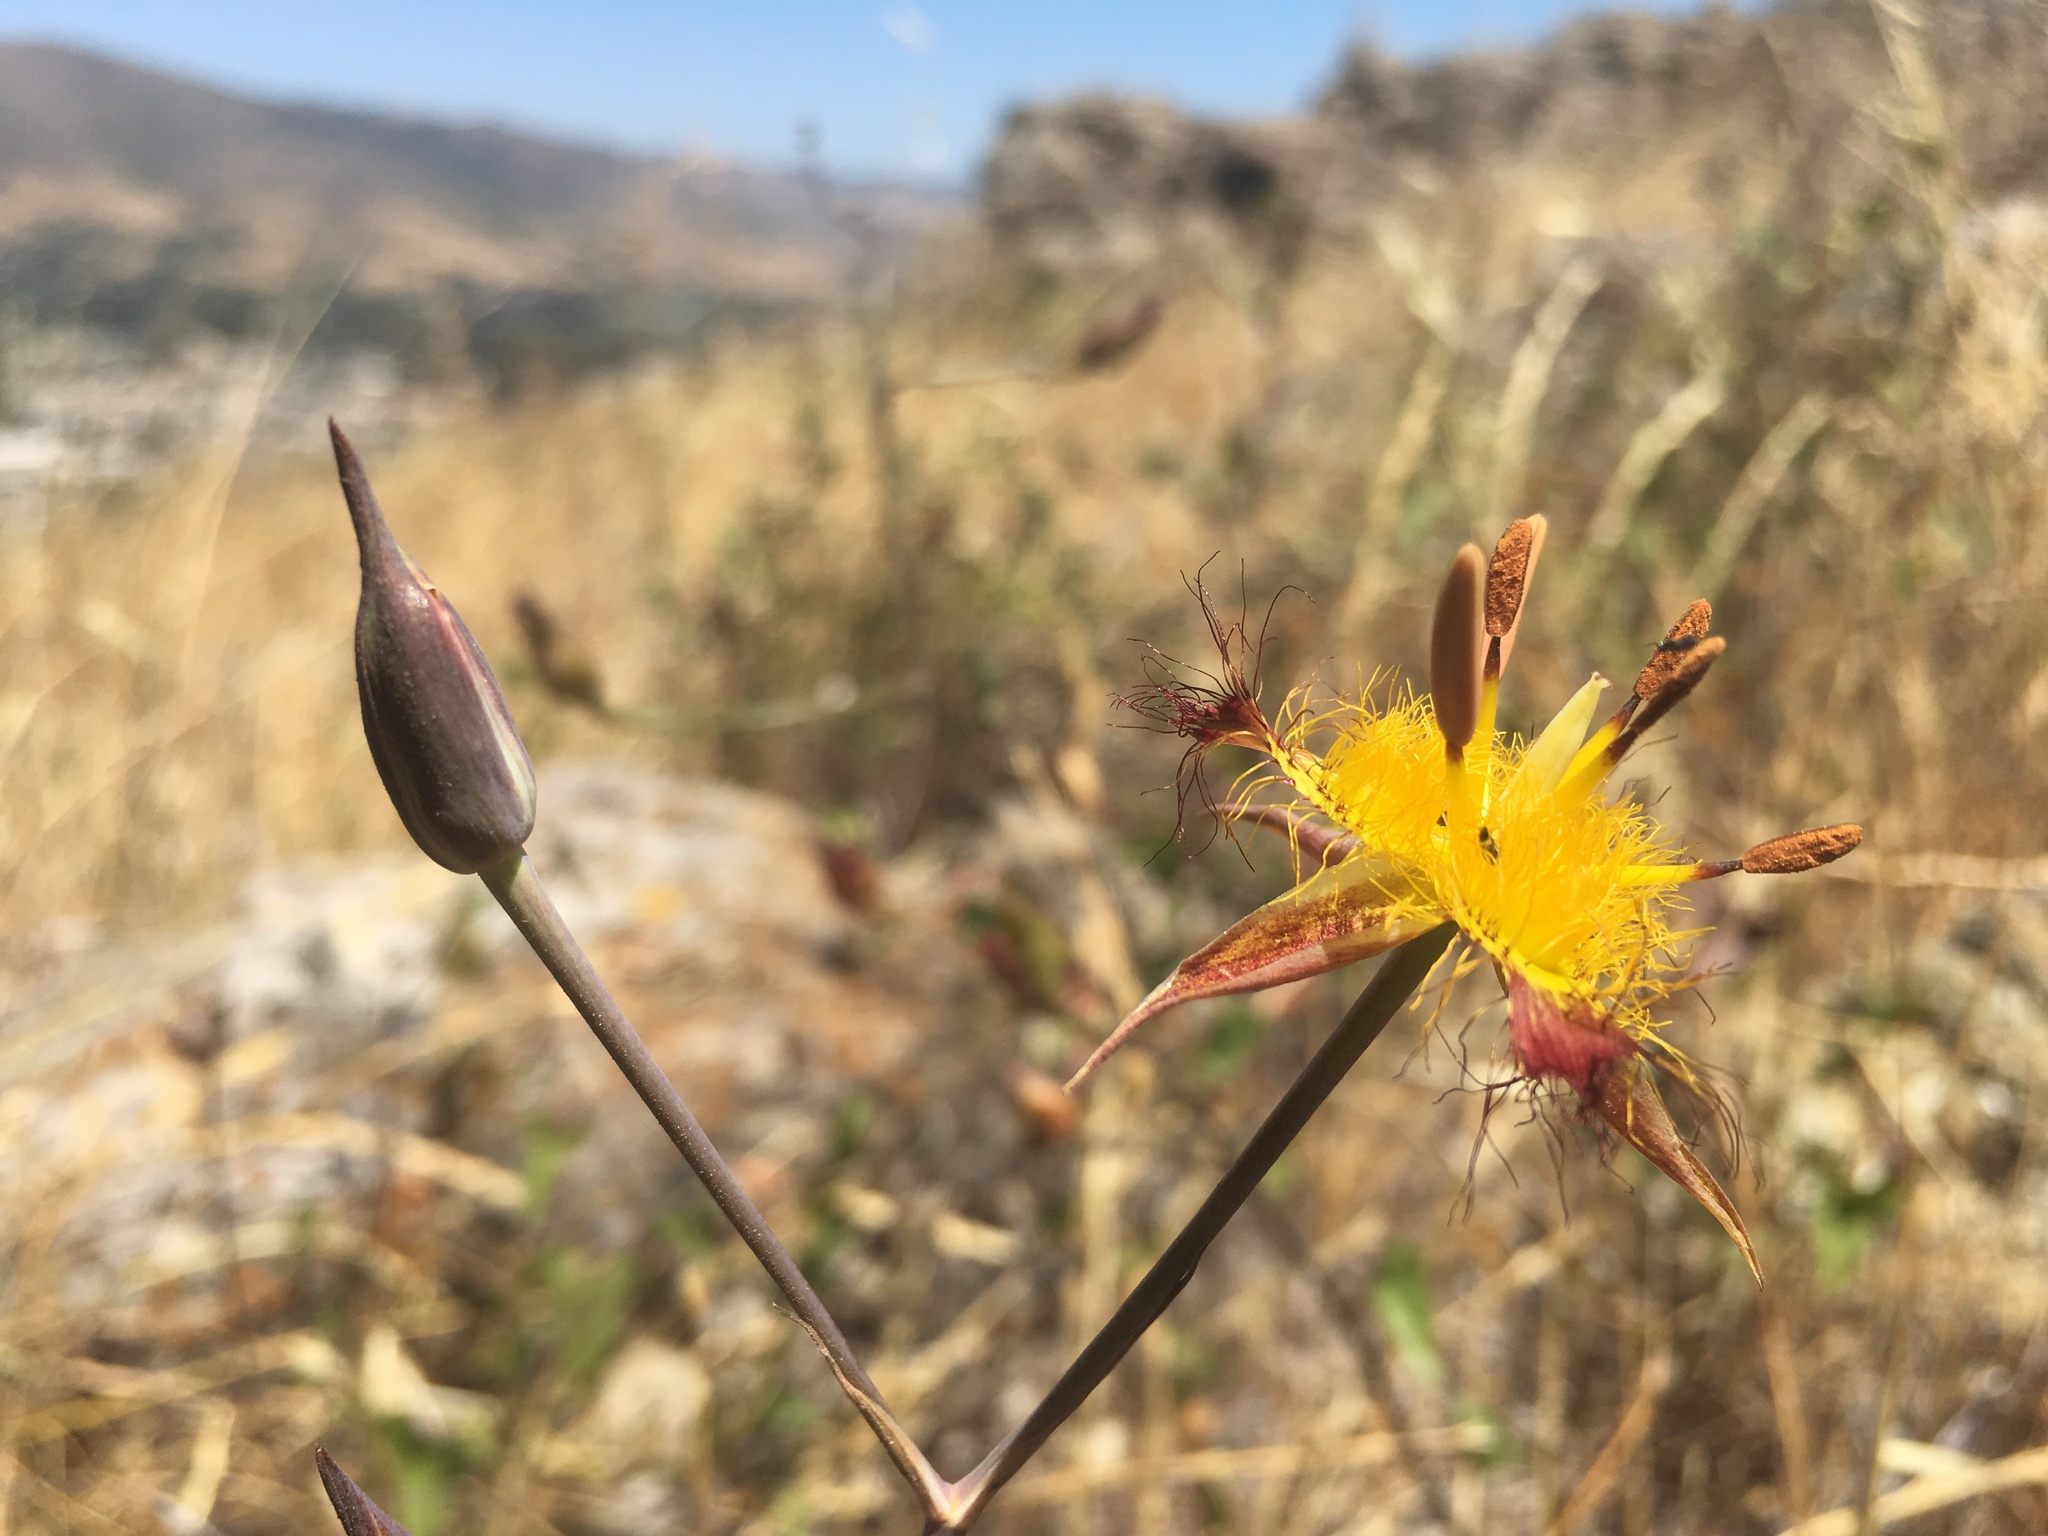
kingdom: Plantae
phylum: Tracheophyta
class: Liliopsida
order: Liliales
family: Liliaceae
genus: Calochortus
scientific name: Calochortus obispoensis
